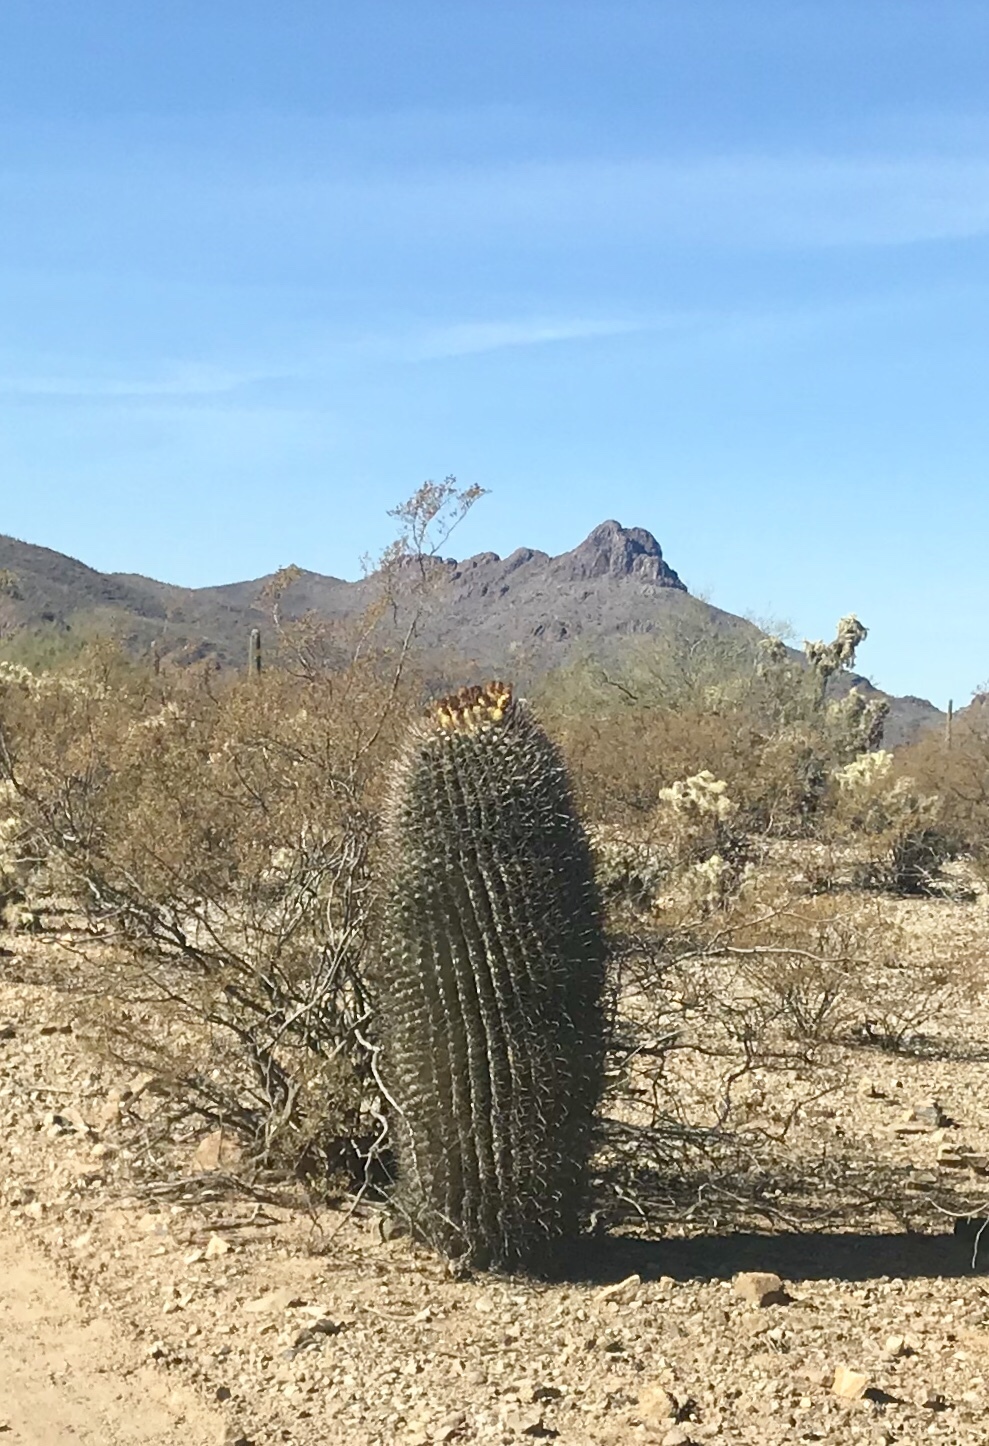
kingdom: Plantae
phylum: Tracheophyta
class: Magnoliopsida
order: Caryophyllales
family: Cactaceae
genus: Ferocactus
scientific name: Ferocactus wislizeni
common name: Candy barrel cactus
